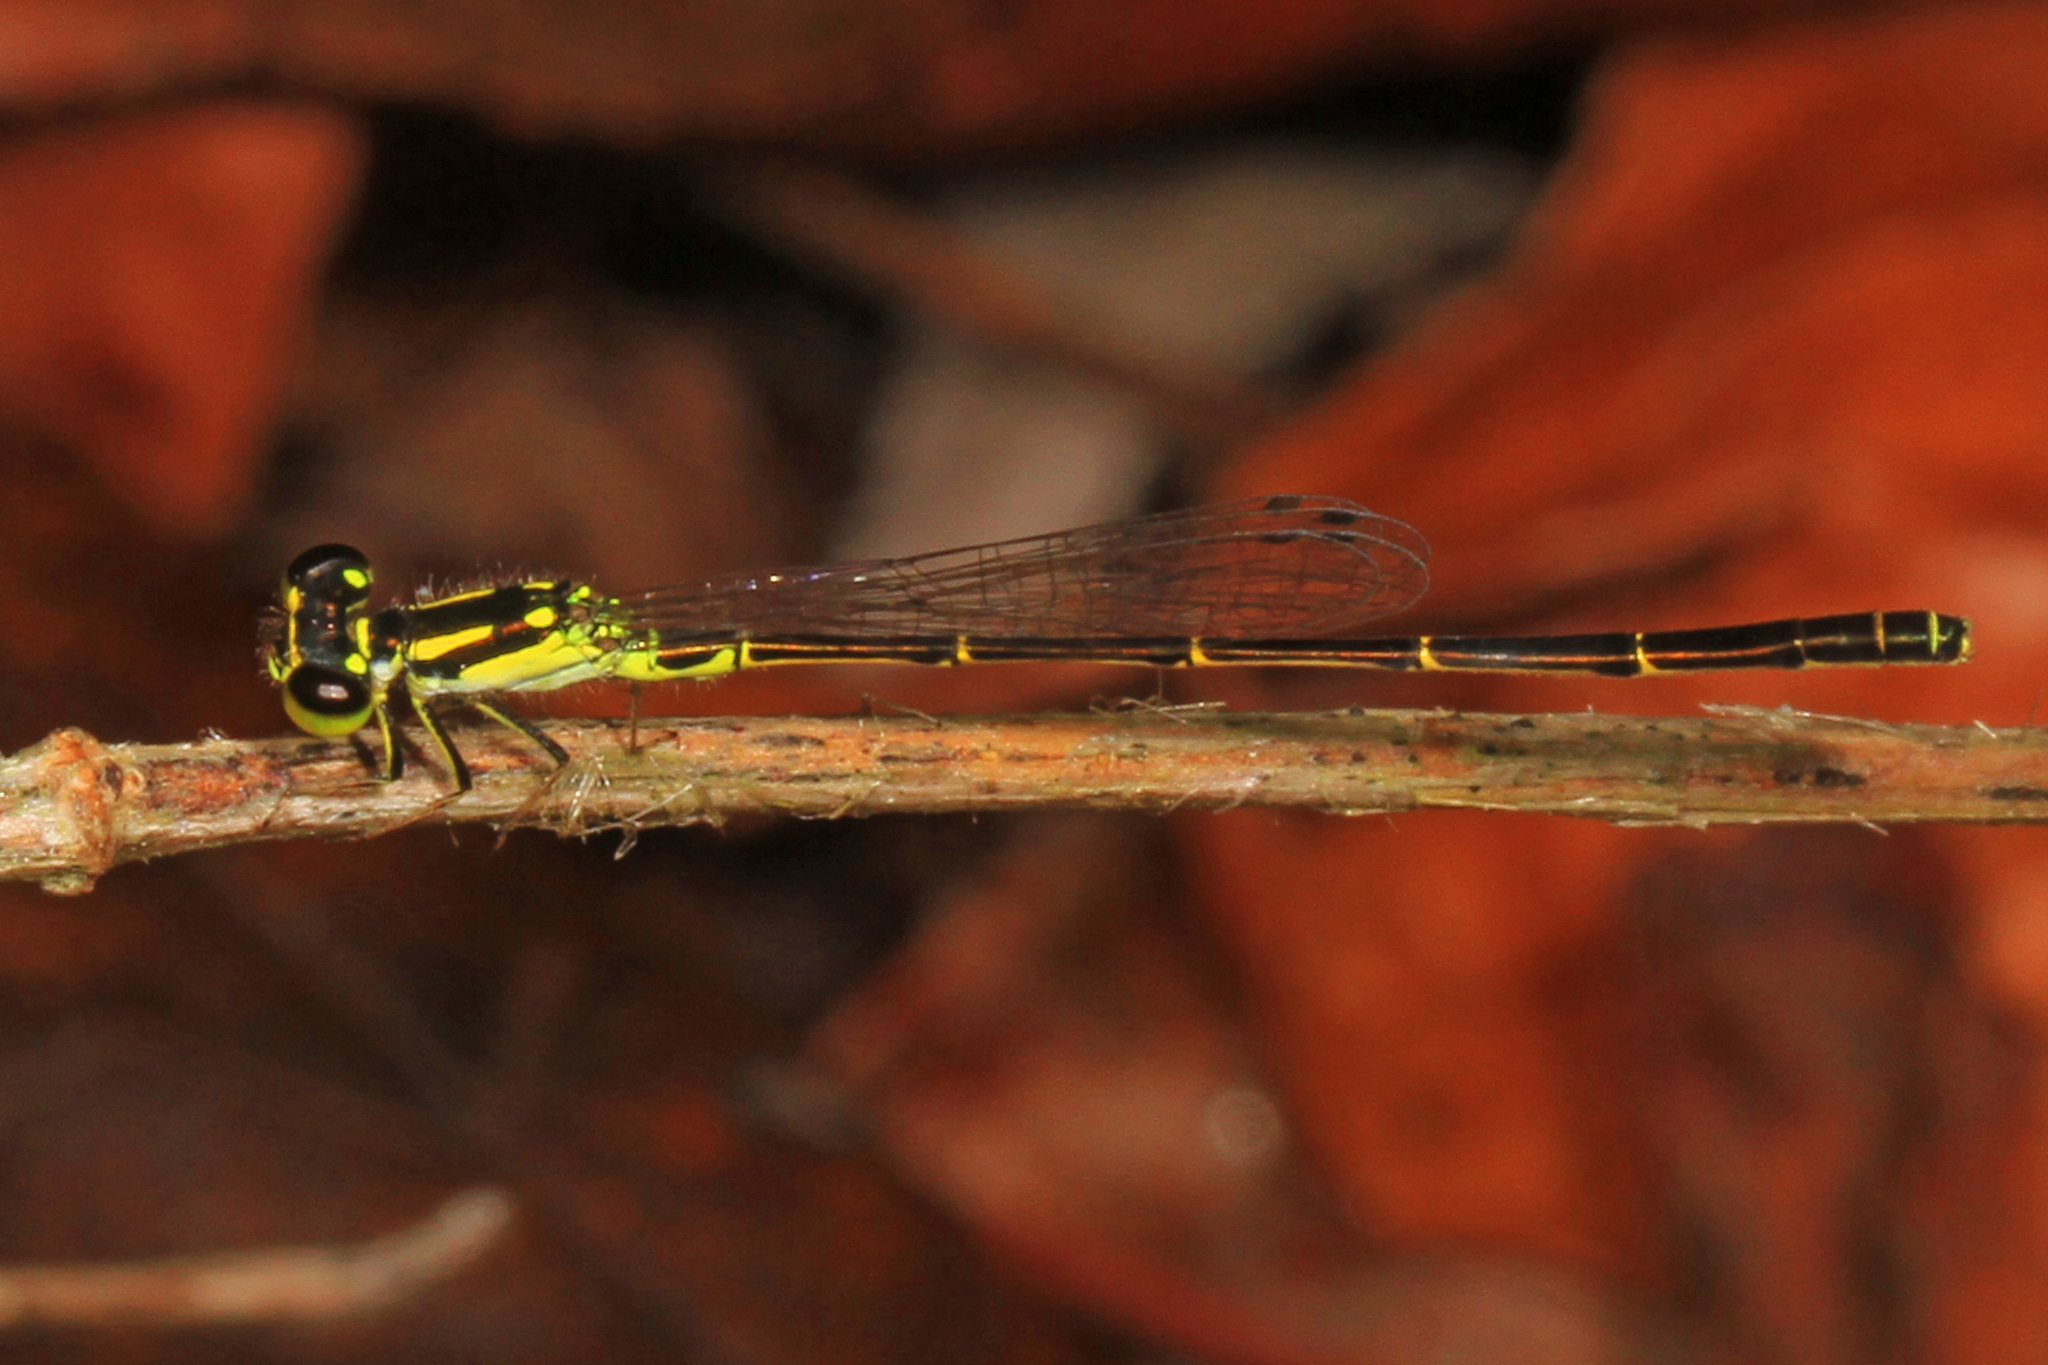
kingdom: Animalia
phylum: Arthropoda
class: Insecta
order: Odonata
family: Coenagrionidae
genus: Ischnura
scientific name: Ischnura posita
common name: Fragile forktail
